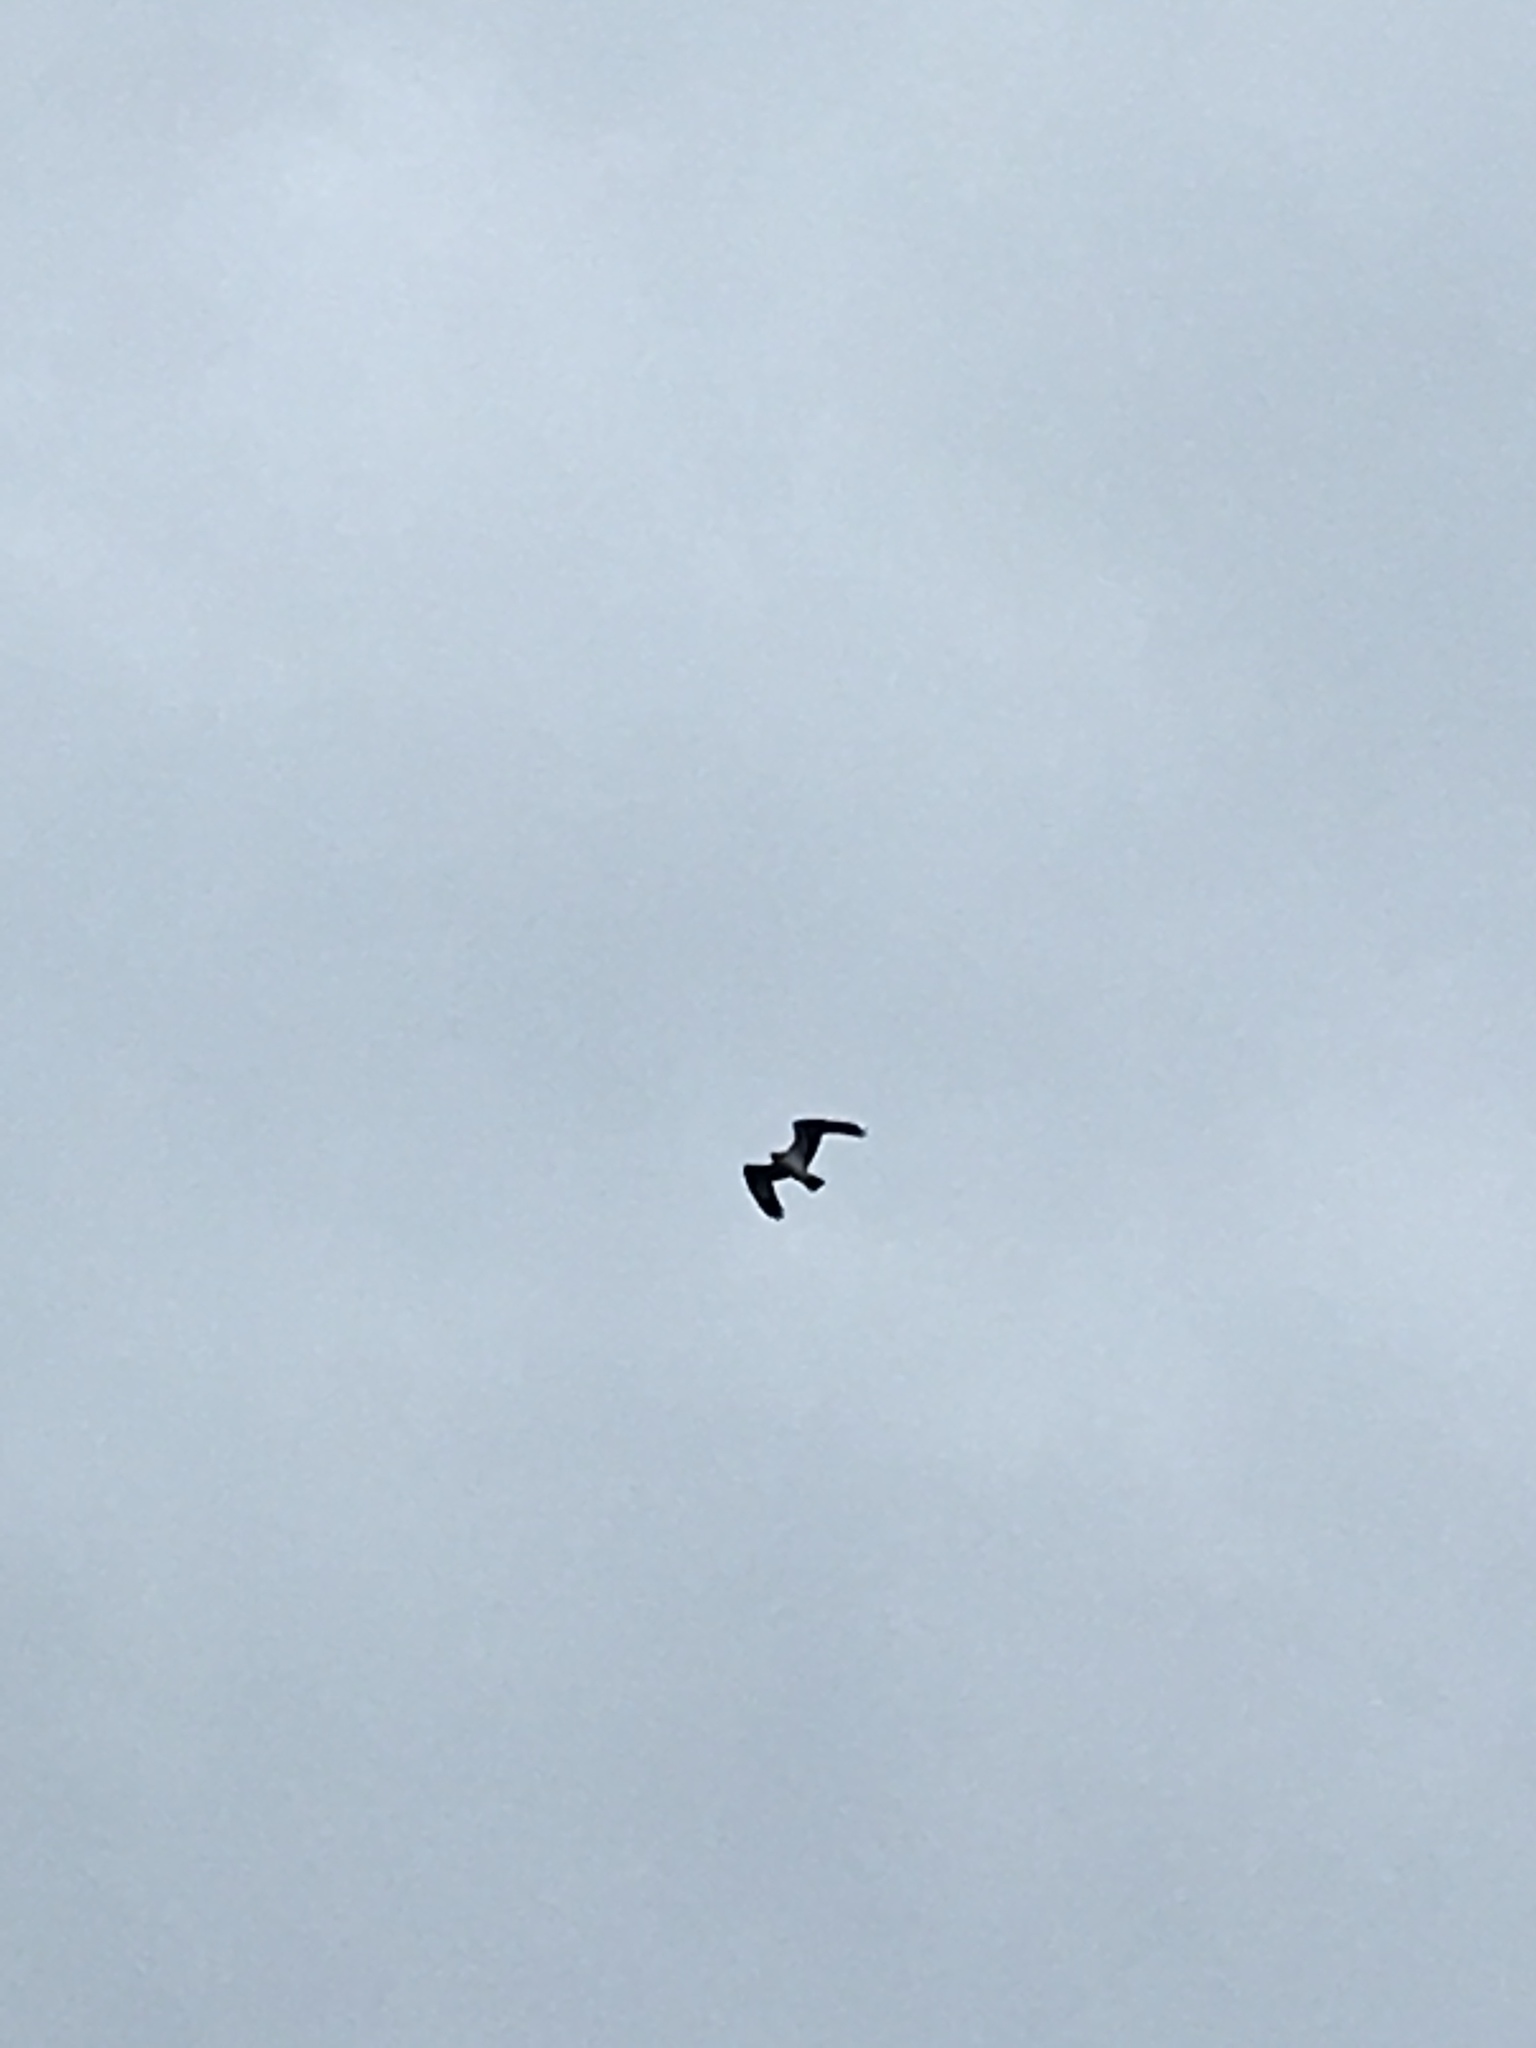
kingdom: Animalia
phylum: Chordata
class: Aves
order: Accipitriformes
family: Pandionidae
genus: Pandion
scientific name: Pandion haliaetus
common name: Osprey
